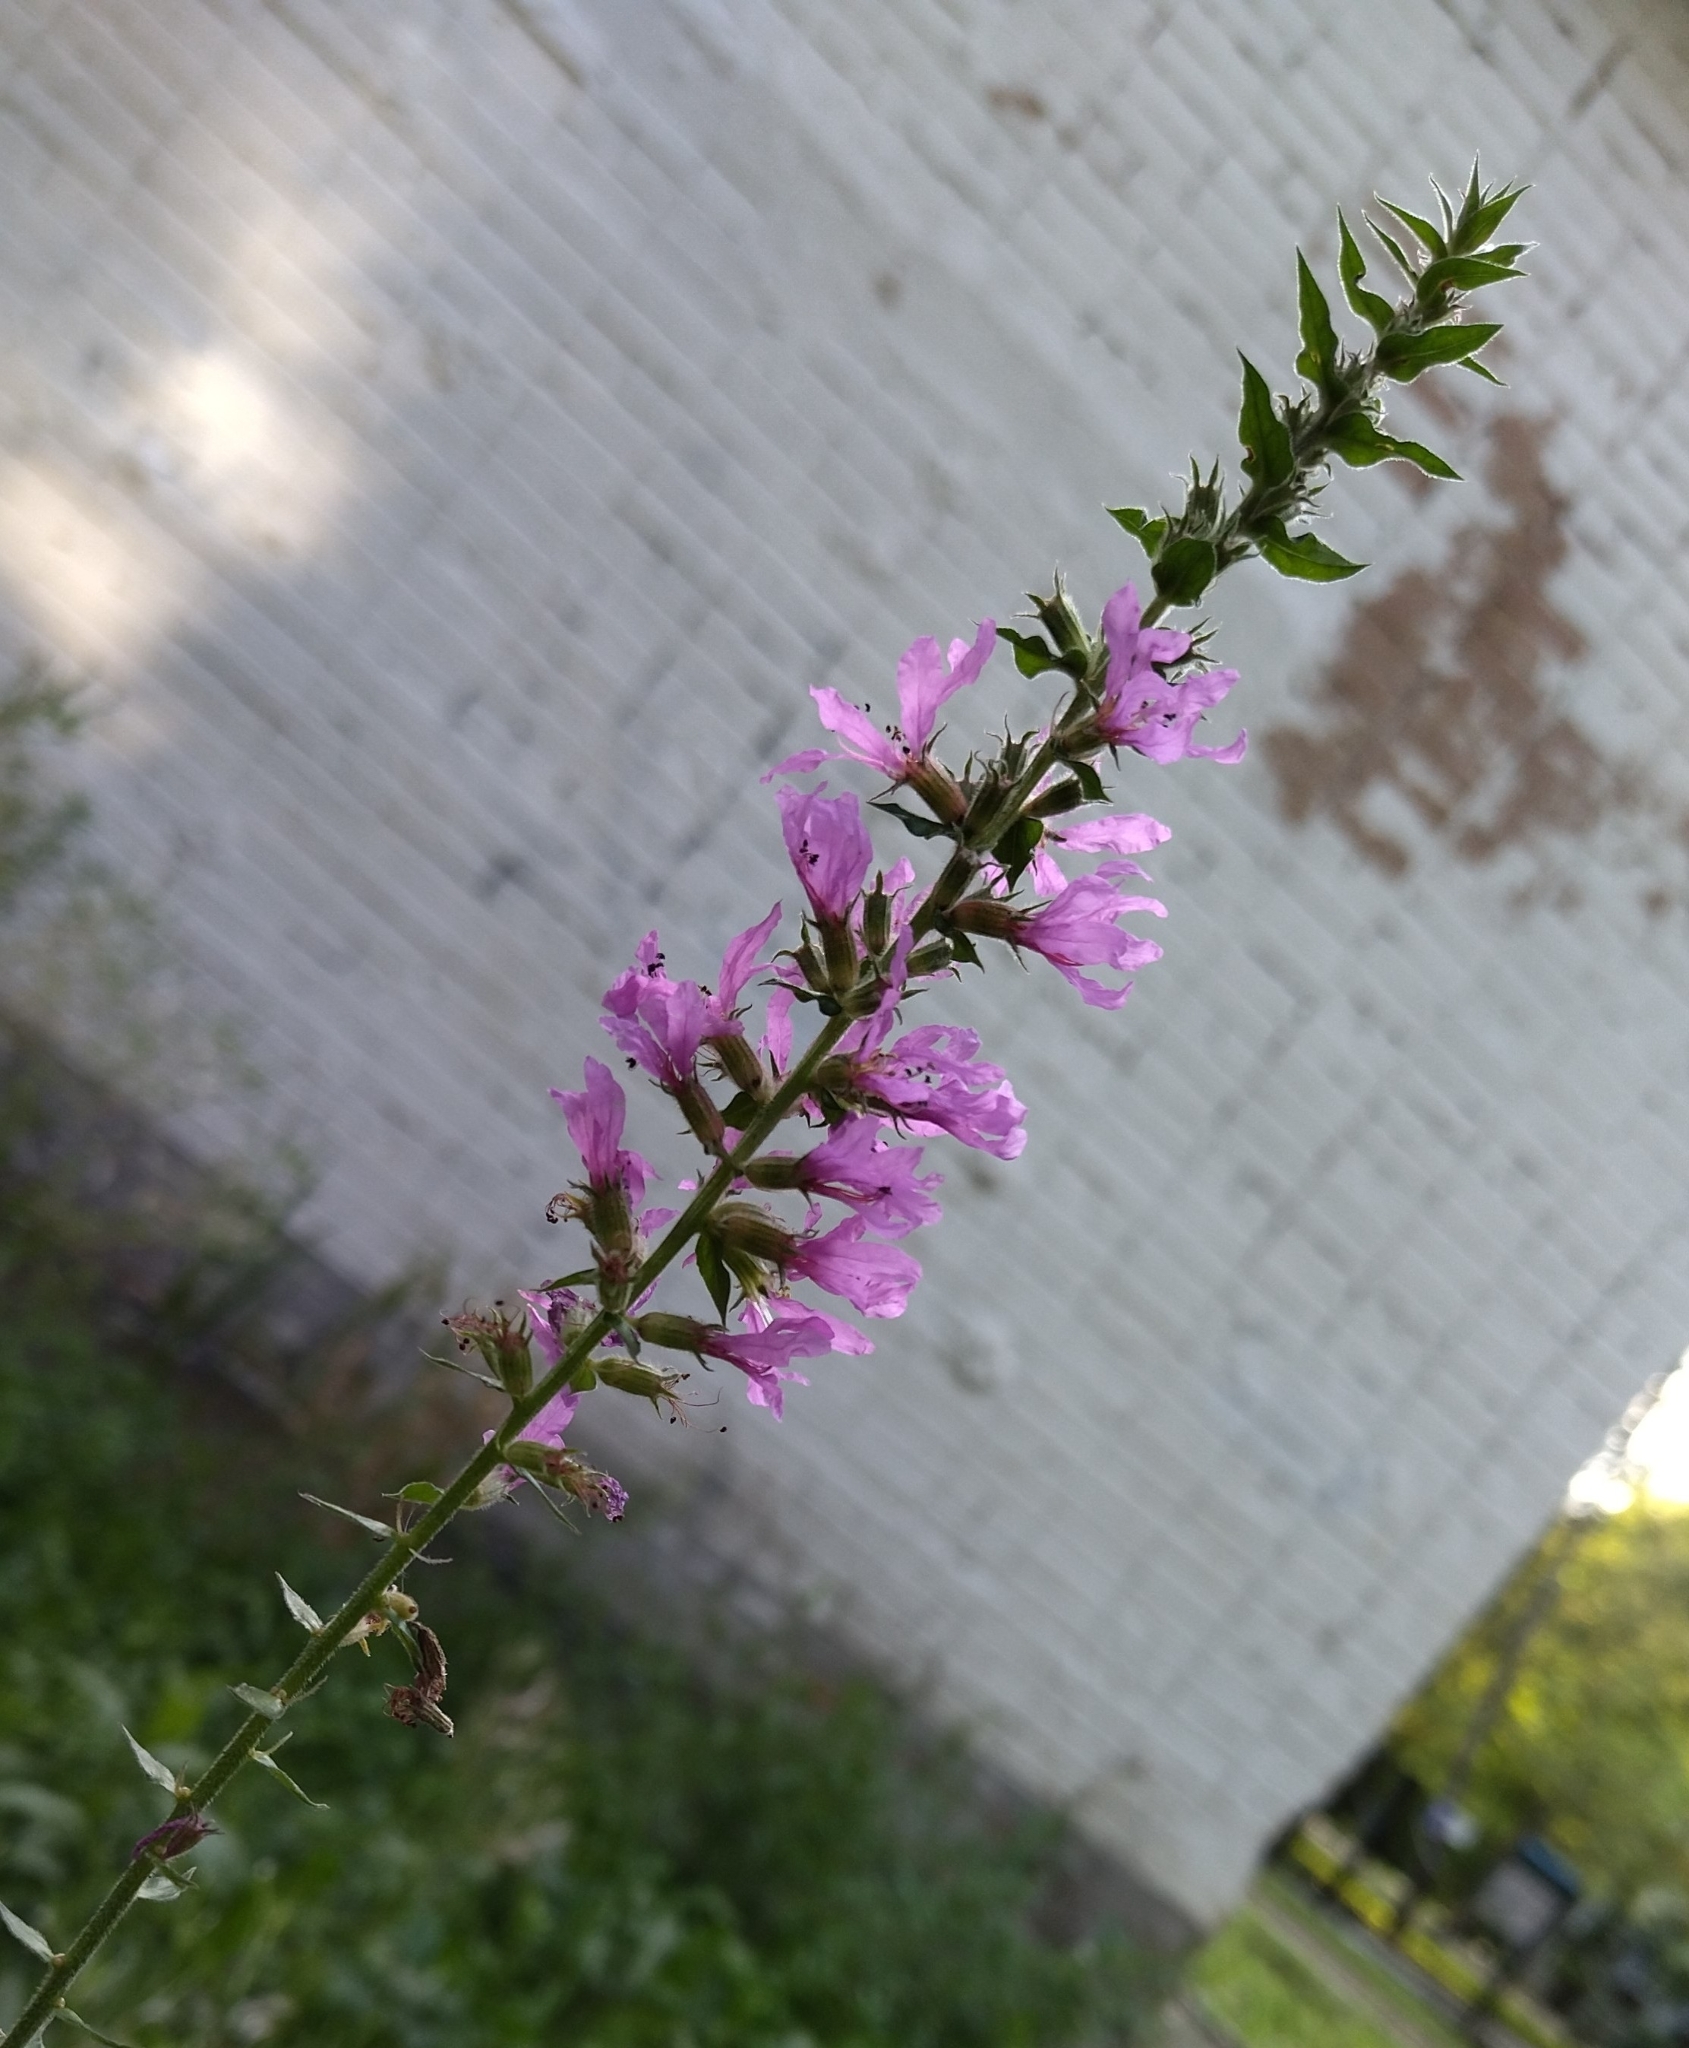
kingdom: Plantae
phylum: Tracheophyta
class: Magnoliopsida
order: Myrtales
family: Lythraceae
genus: Lythrum
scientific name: Lythrum salicaria
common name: Purple loosestrife
